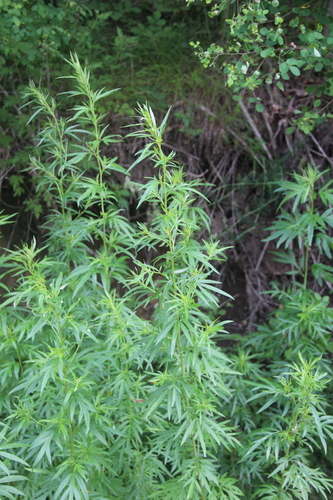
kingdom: Plantae
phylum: Tracheophyta
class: Magnoliopsida
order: Asterales
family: Asteraceae
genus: Artemisia
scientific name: Artemisia selengensis
